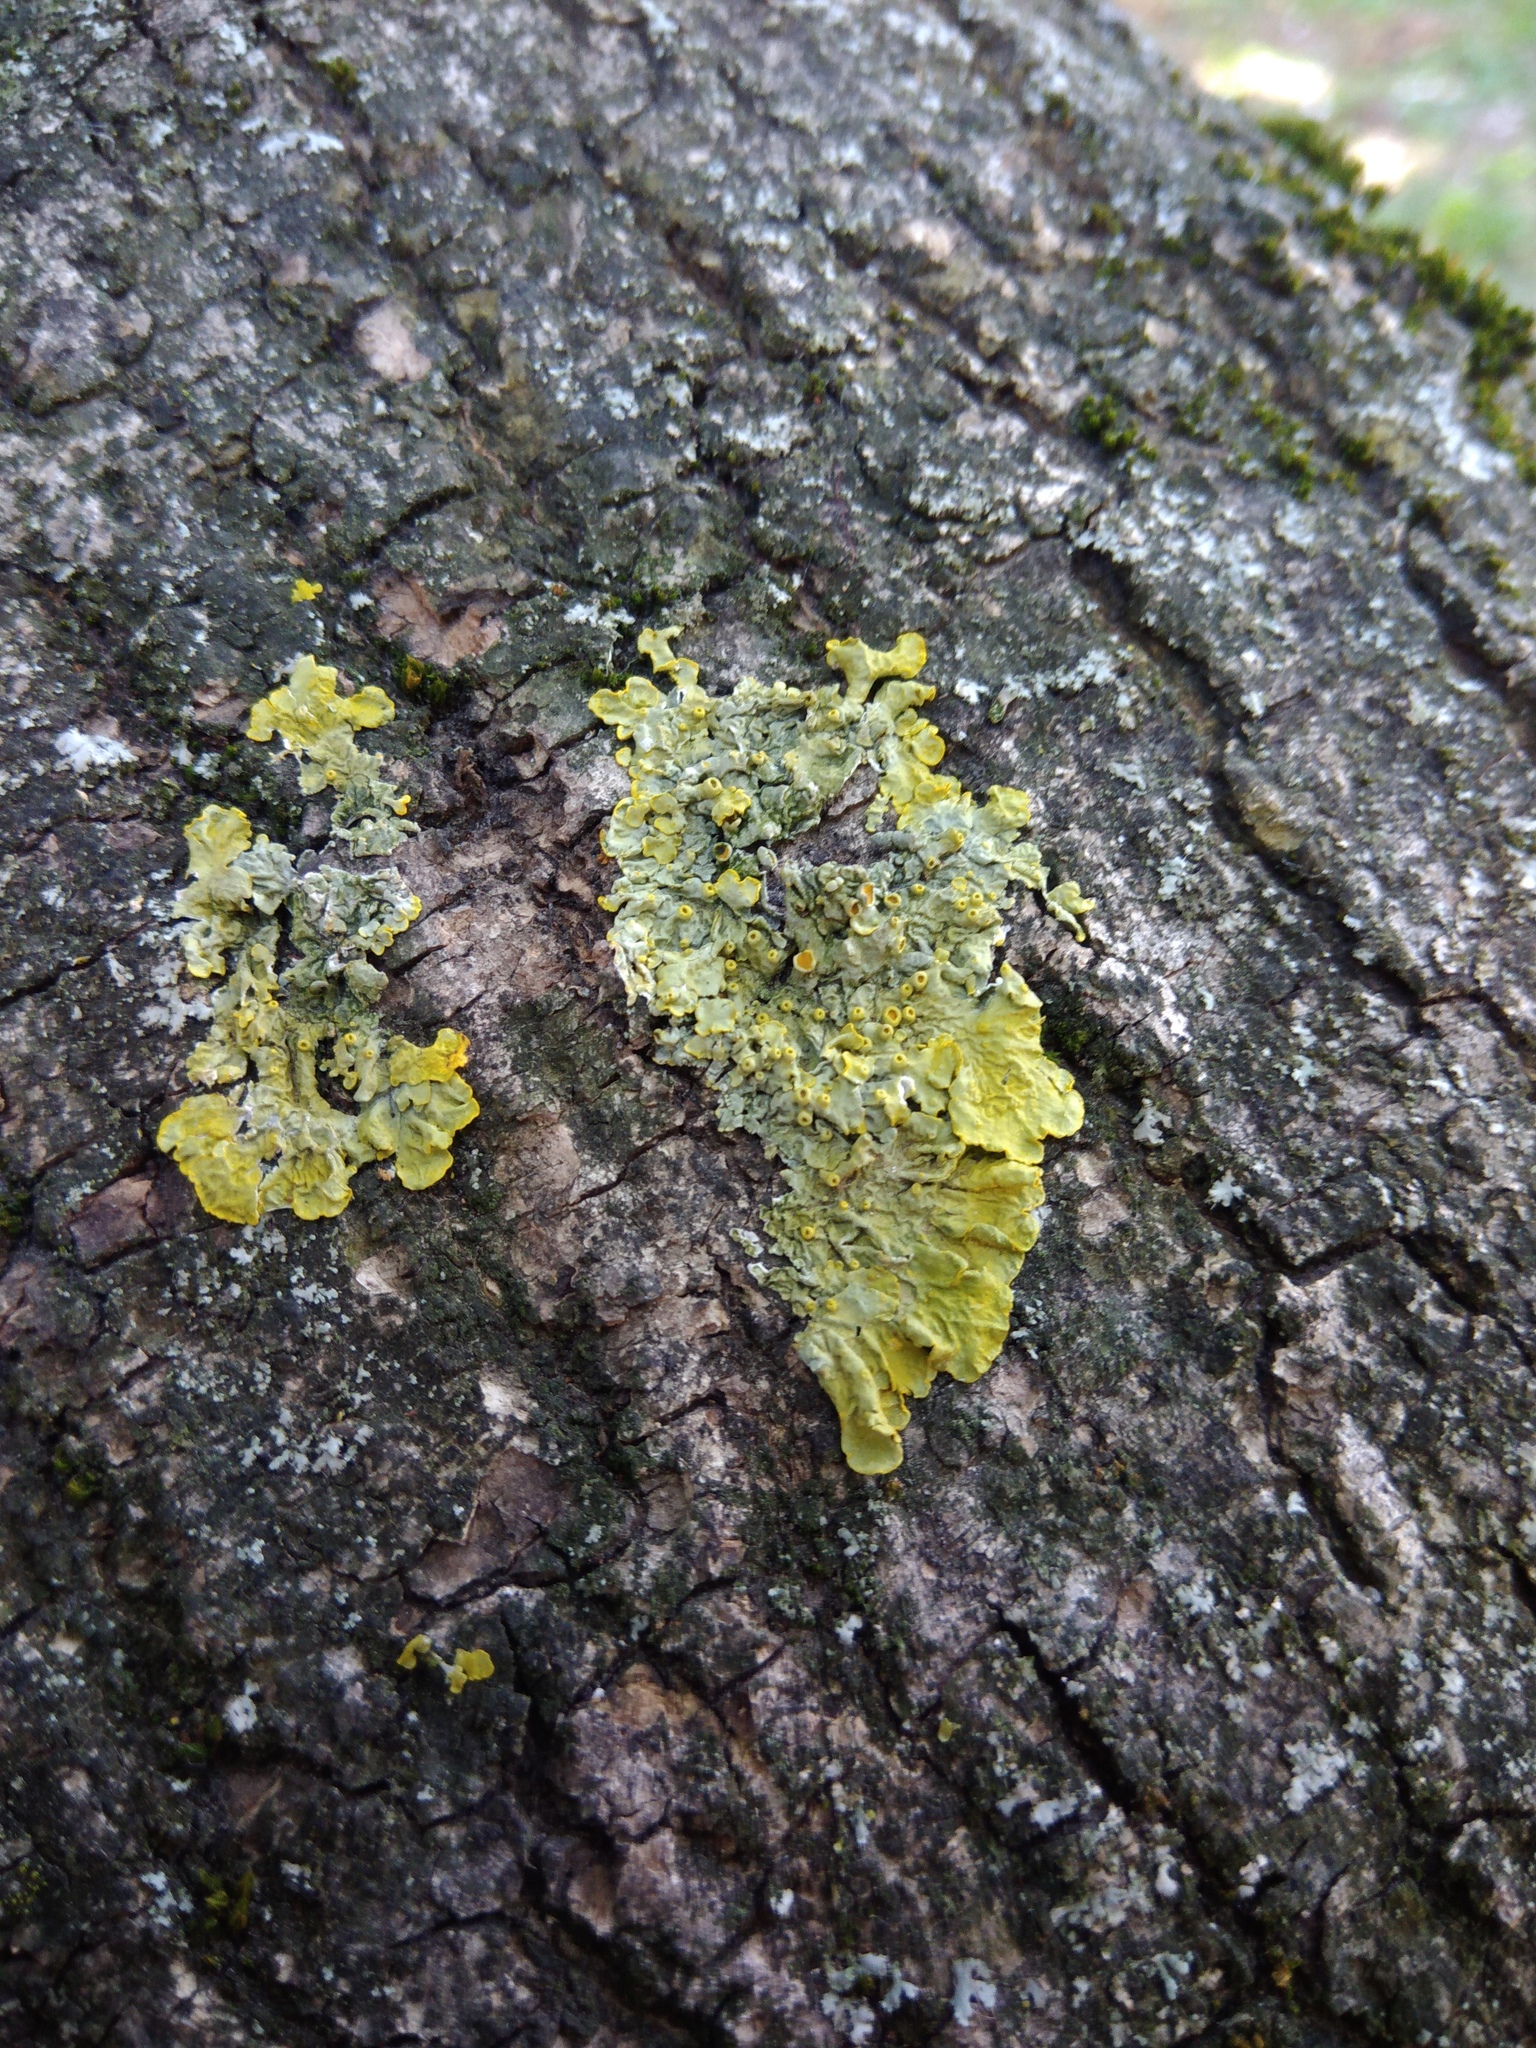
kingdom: Fungi
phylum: Ascomycota
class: Lecanoromycetes
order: Teloschistales
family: Teloschistaceae
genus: Xanthoria
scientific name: Xanthoria parietina
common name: Common orange lichen
